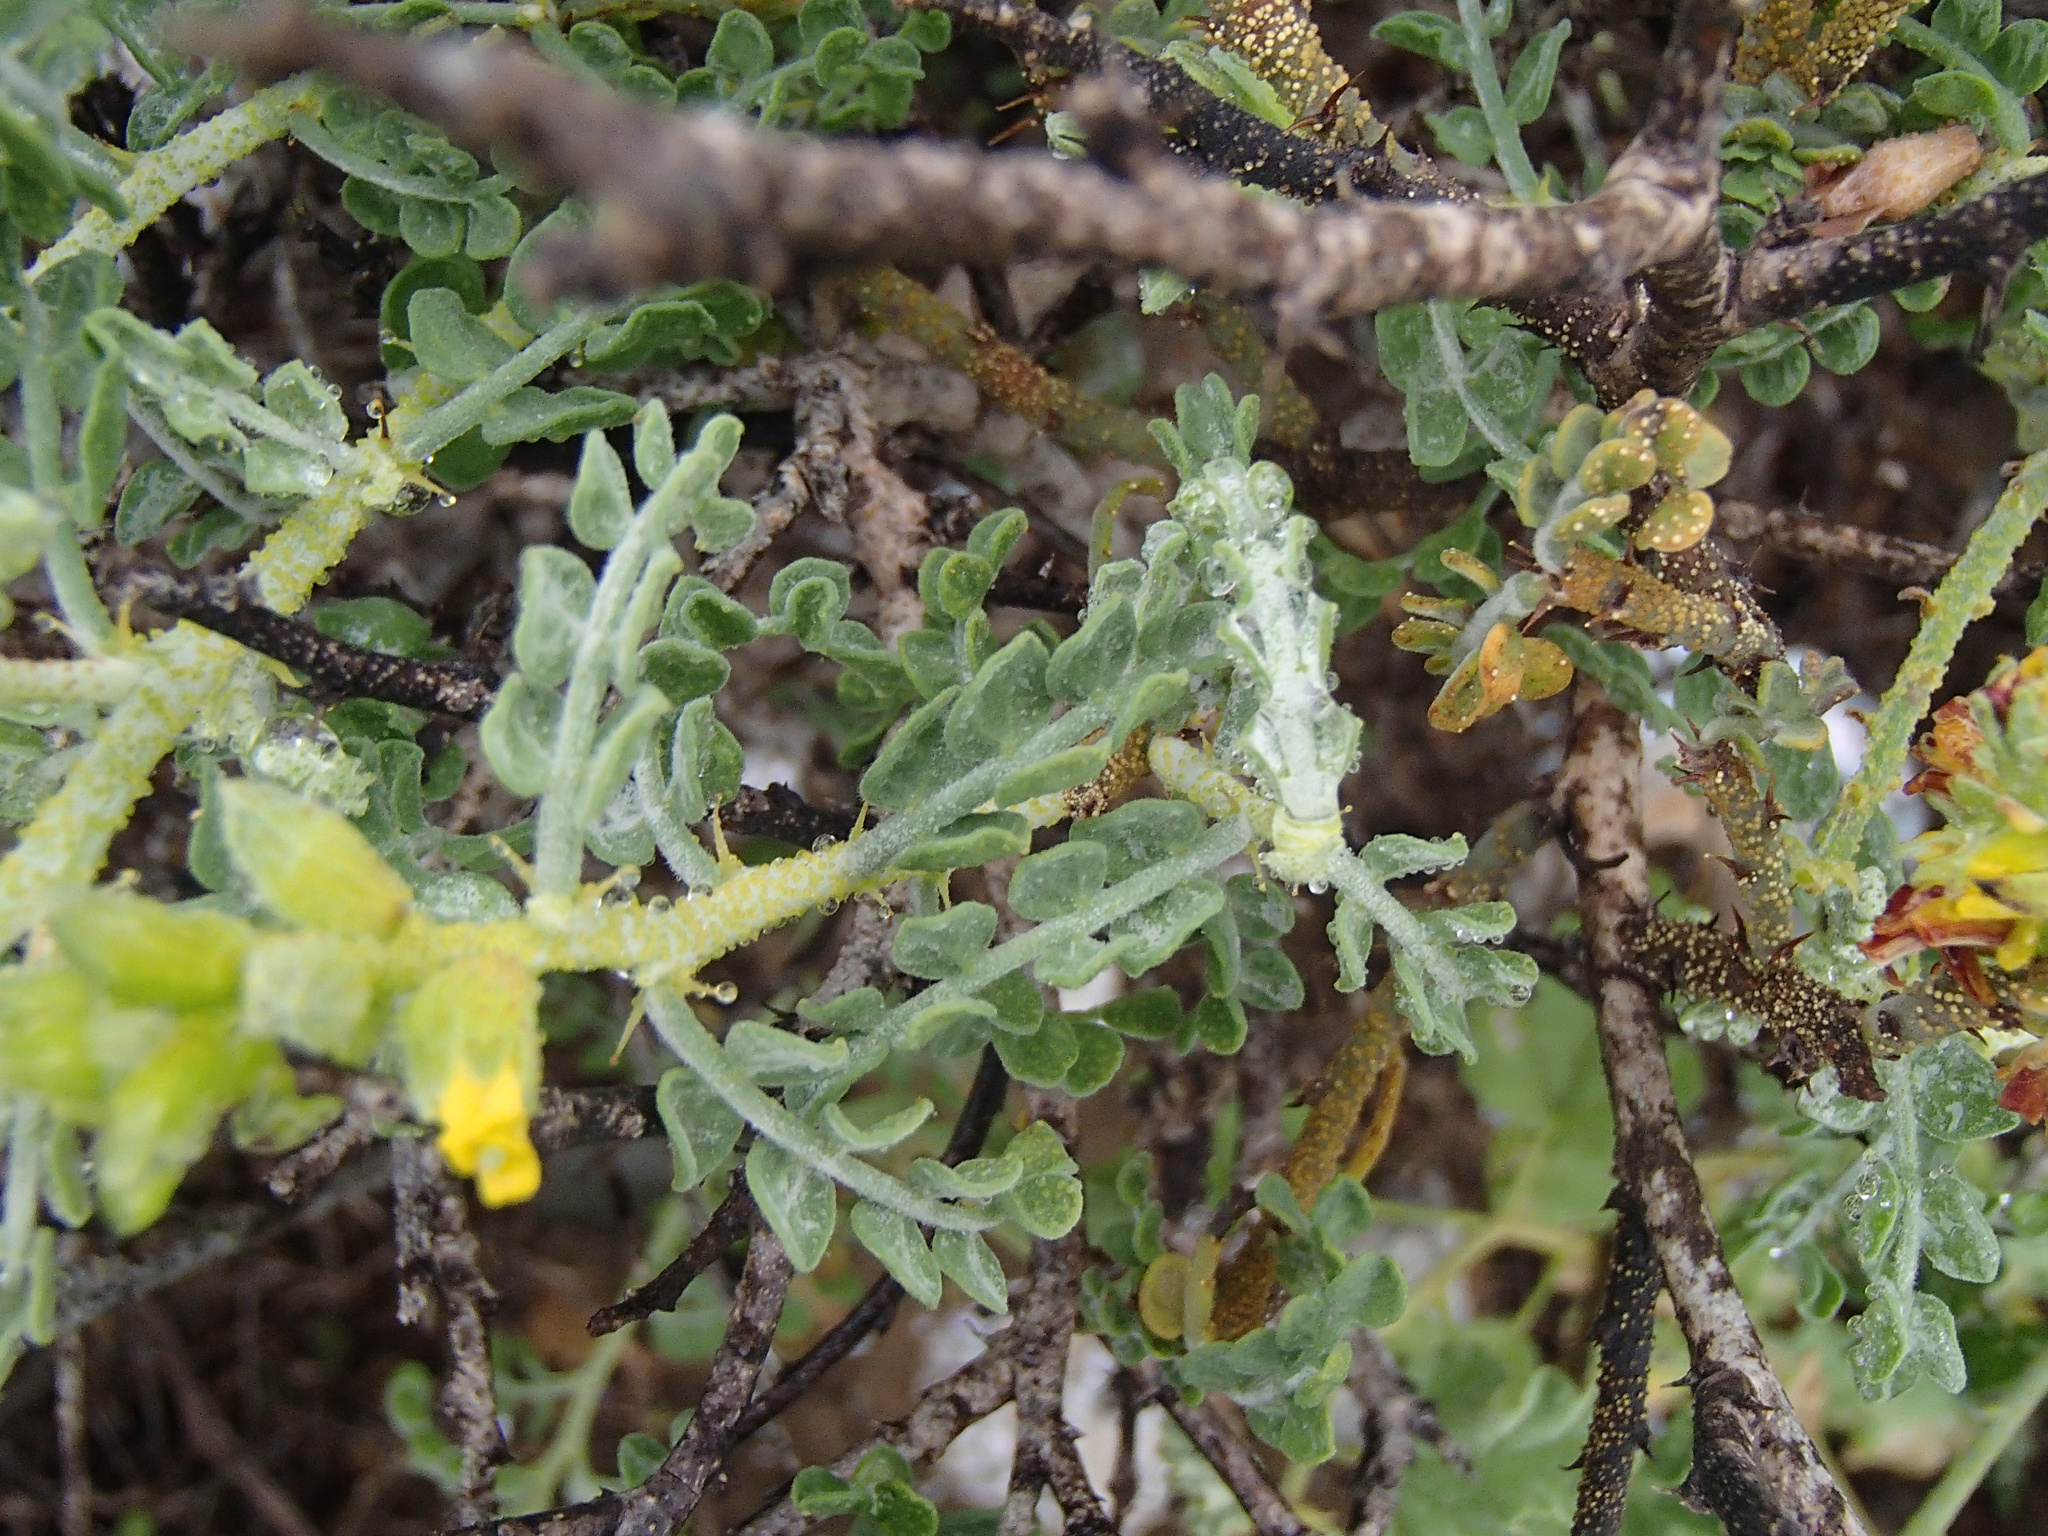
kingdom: Plantae
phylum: Tracheophyta
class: Magnoliopsida
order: Fabales
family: Fabaceae
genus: Errazurizia
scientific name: Errazurizia benthamii
